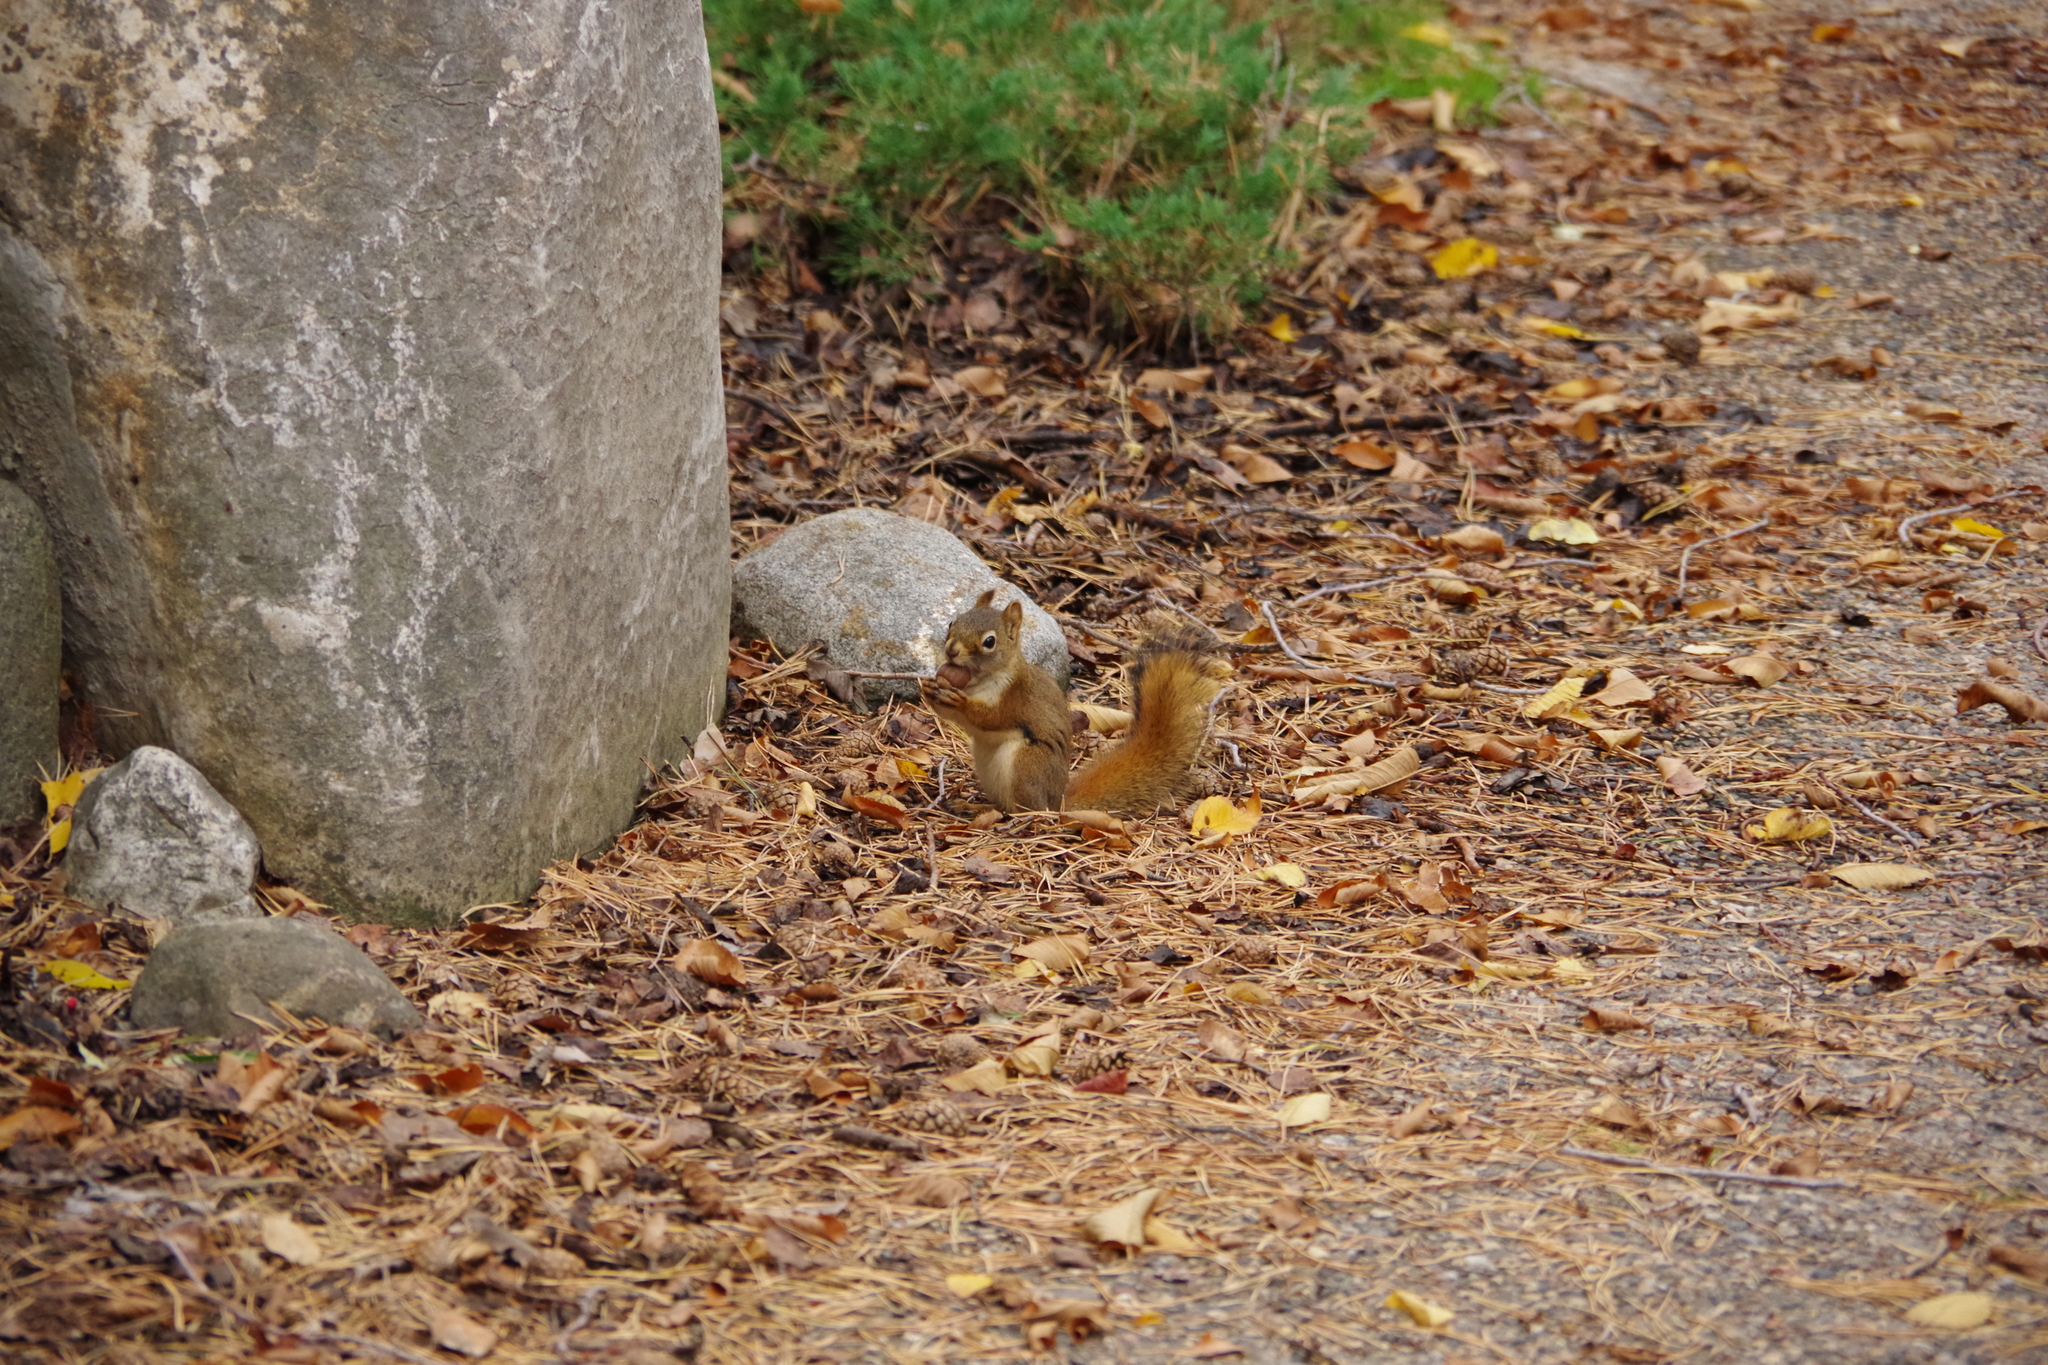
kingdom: Animalia
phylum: Chordata
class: Mammalia
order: Rodentia
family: Sciuridae
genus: Tamiasciurus
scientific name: Tamiasciurus hudsonicus
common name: Red squirrel
